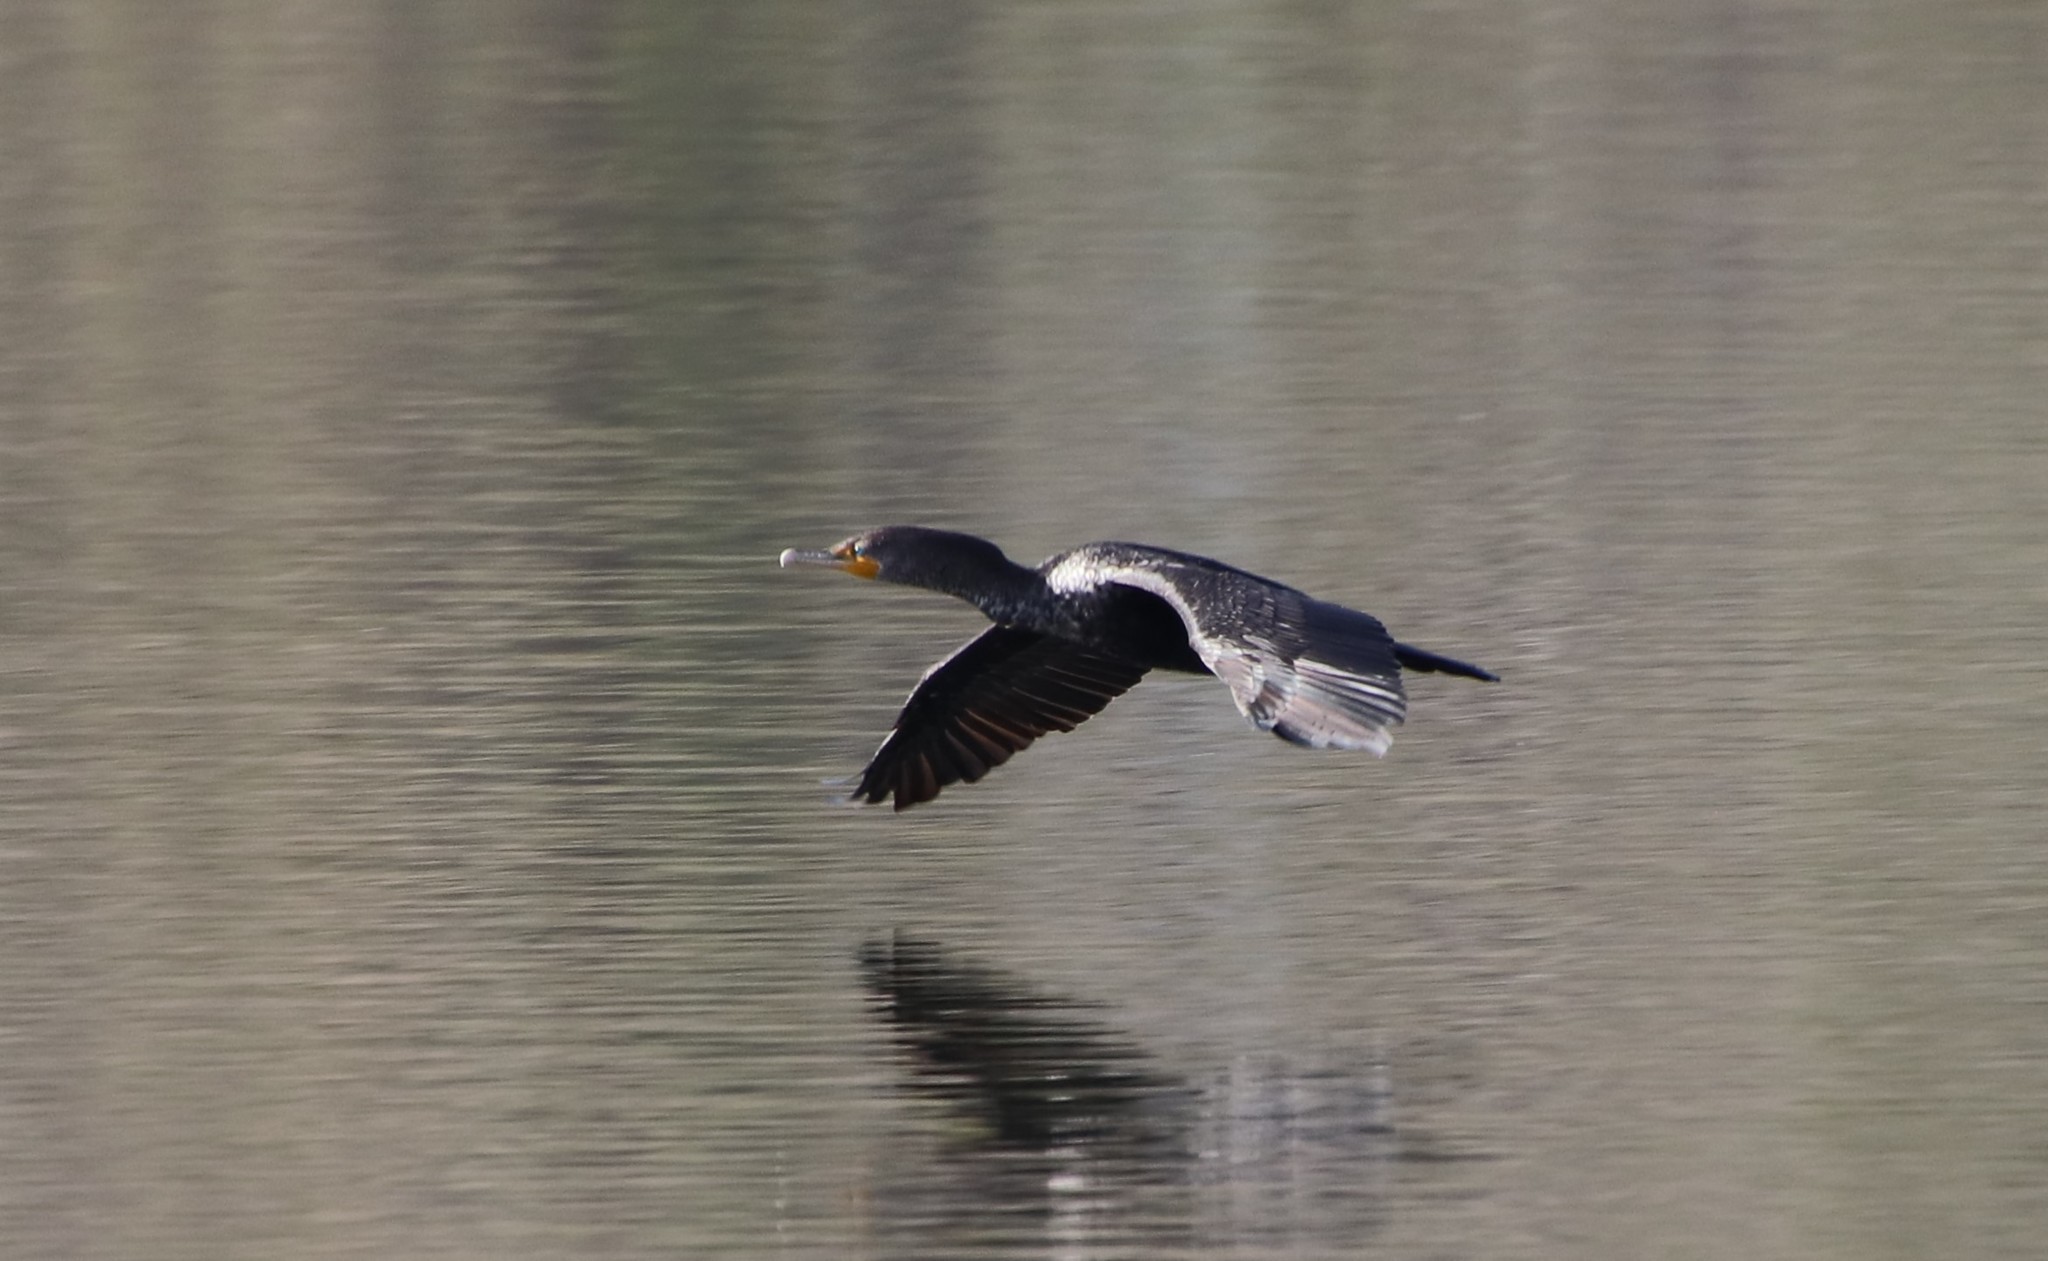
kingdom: Animalia
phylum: Chordata
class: Aves
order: Suliformes
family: Phalacrocoracidae
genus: Phalacrocorax
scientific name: Phalacrocorax auritus
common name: Double-crested cormorant
